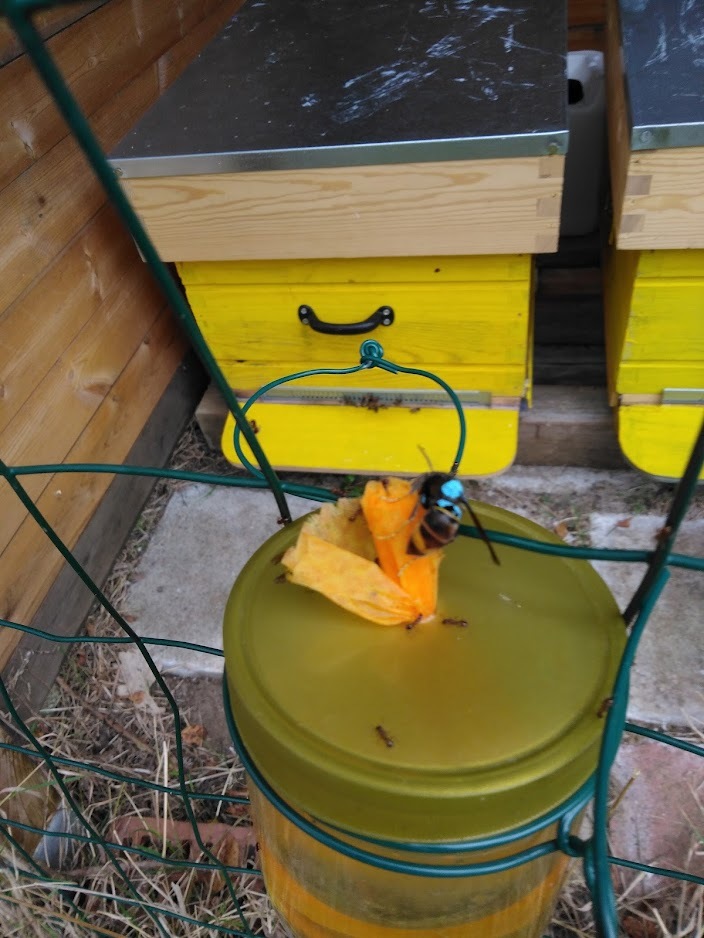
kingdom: Animalia
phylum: Arthropoda
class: Insecta
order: Hymenoptera
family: Vespidae
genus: Vespa
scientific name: Vespa velutina
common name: Asian hornet
